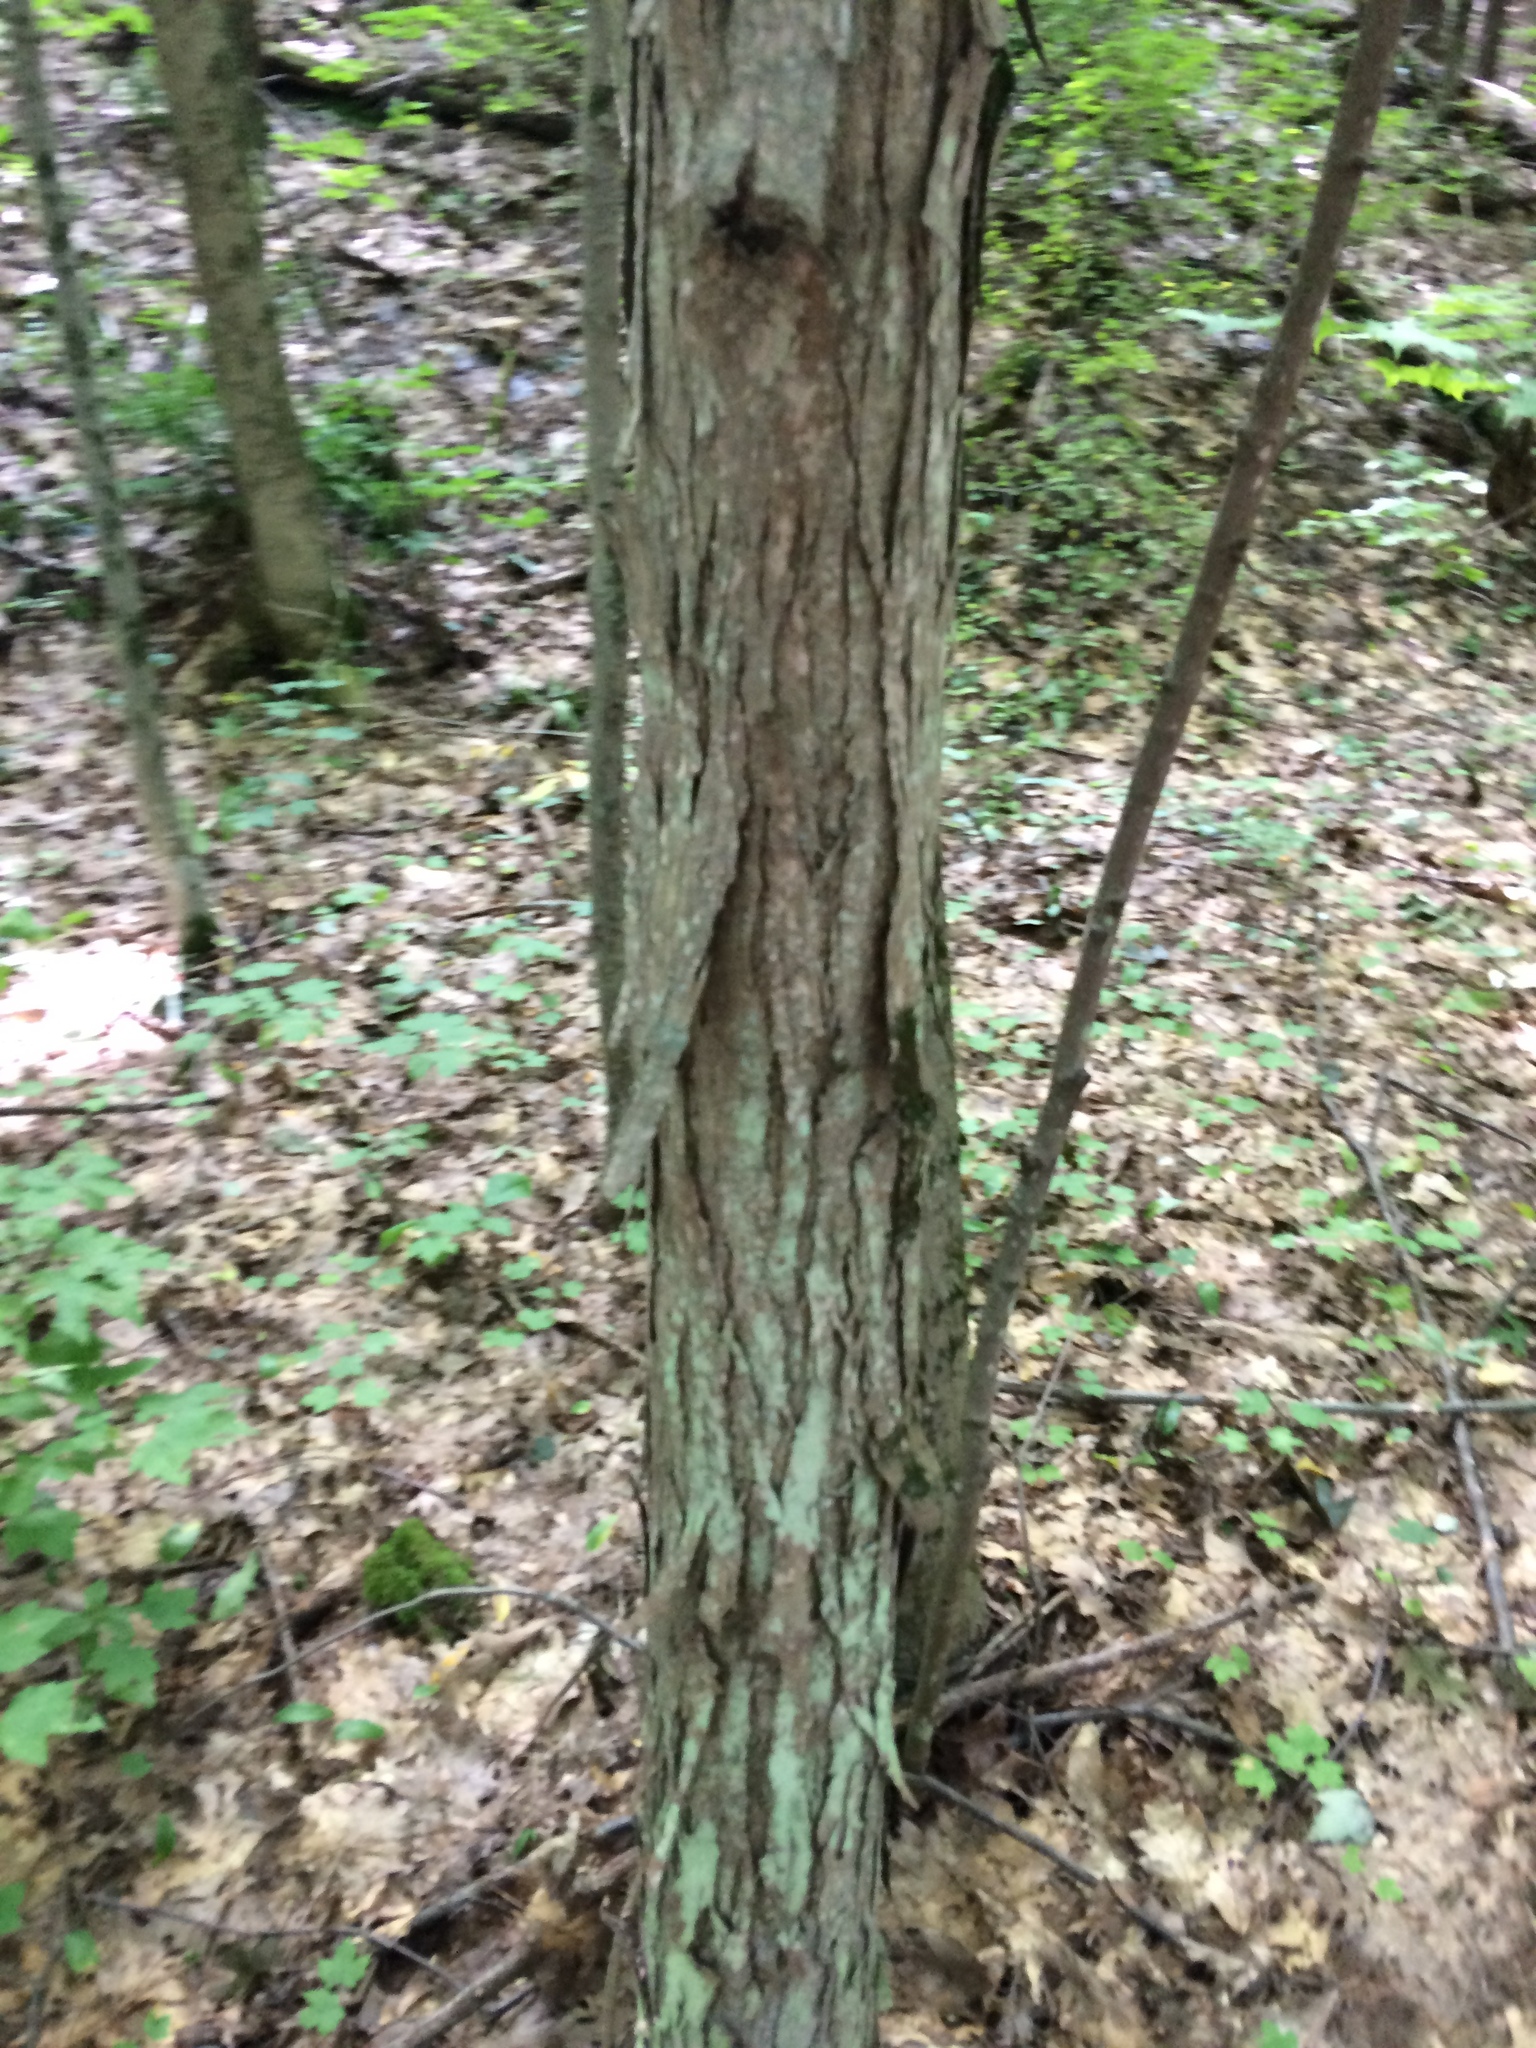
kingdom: Plantae
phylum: Tracheophyta
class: Magnoliopsida
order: Fagales
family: Juglandaceae
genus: Carya
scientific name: Carya ovata
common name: Shagbark hickory
